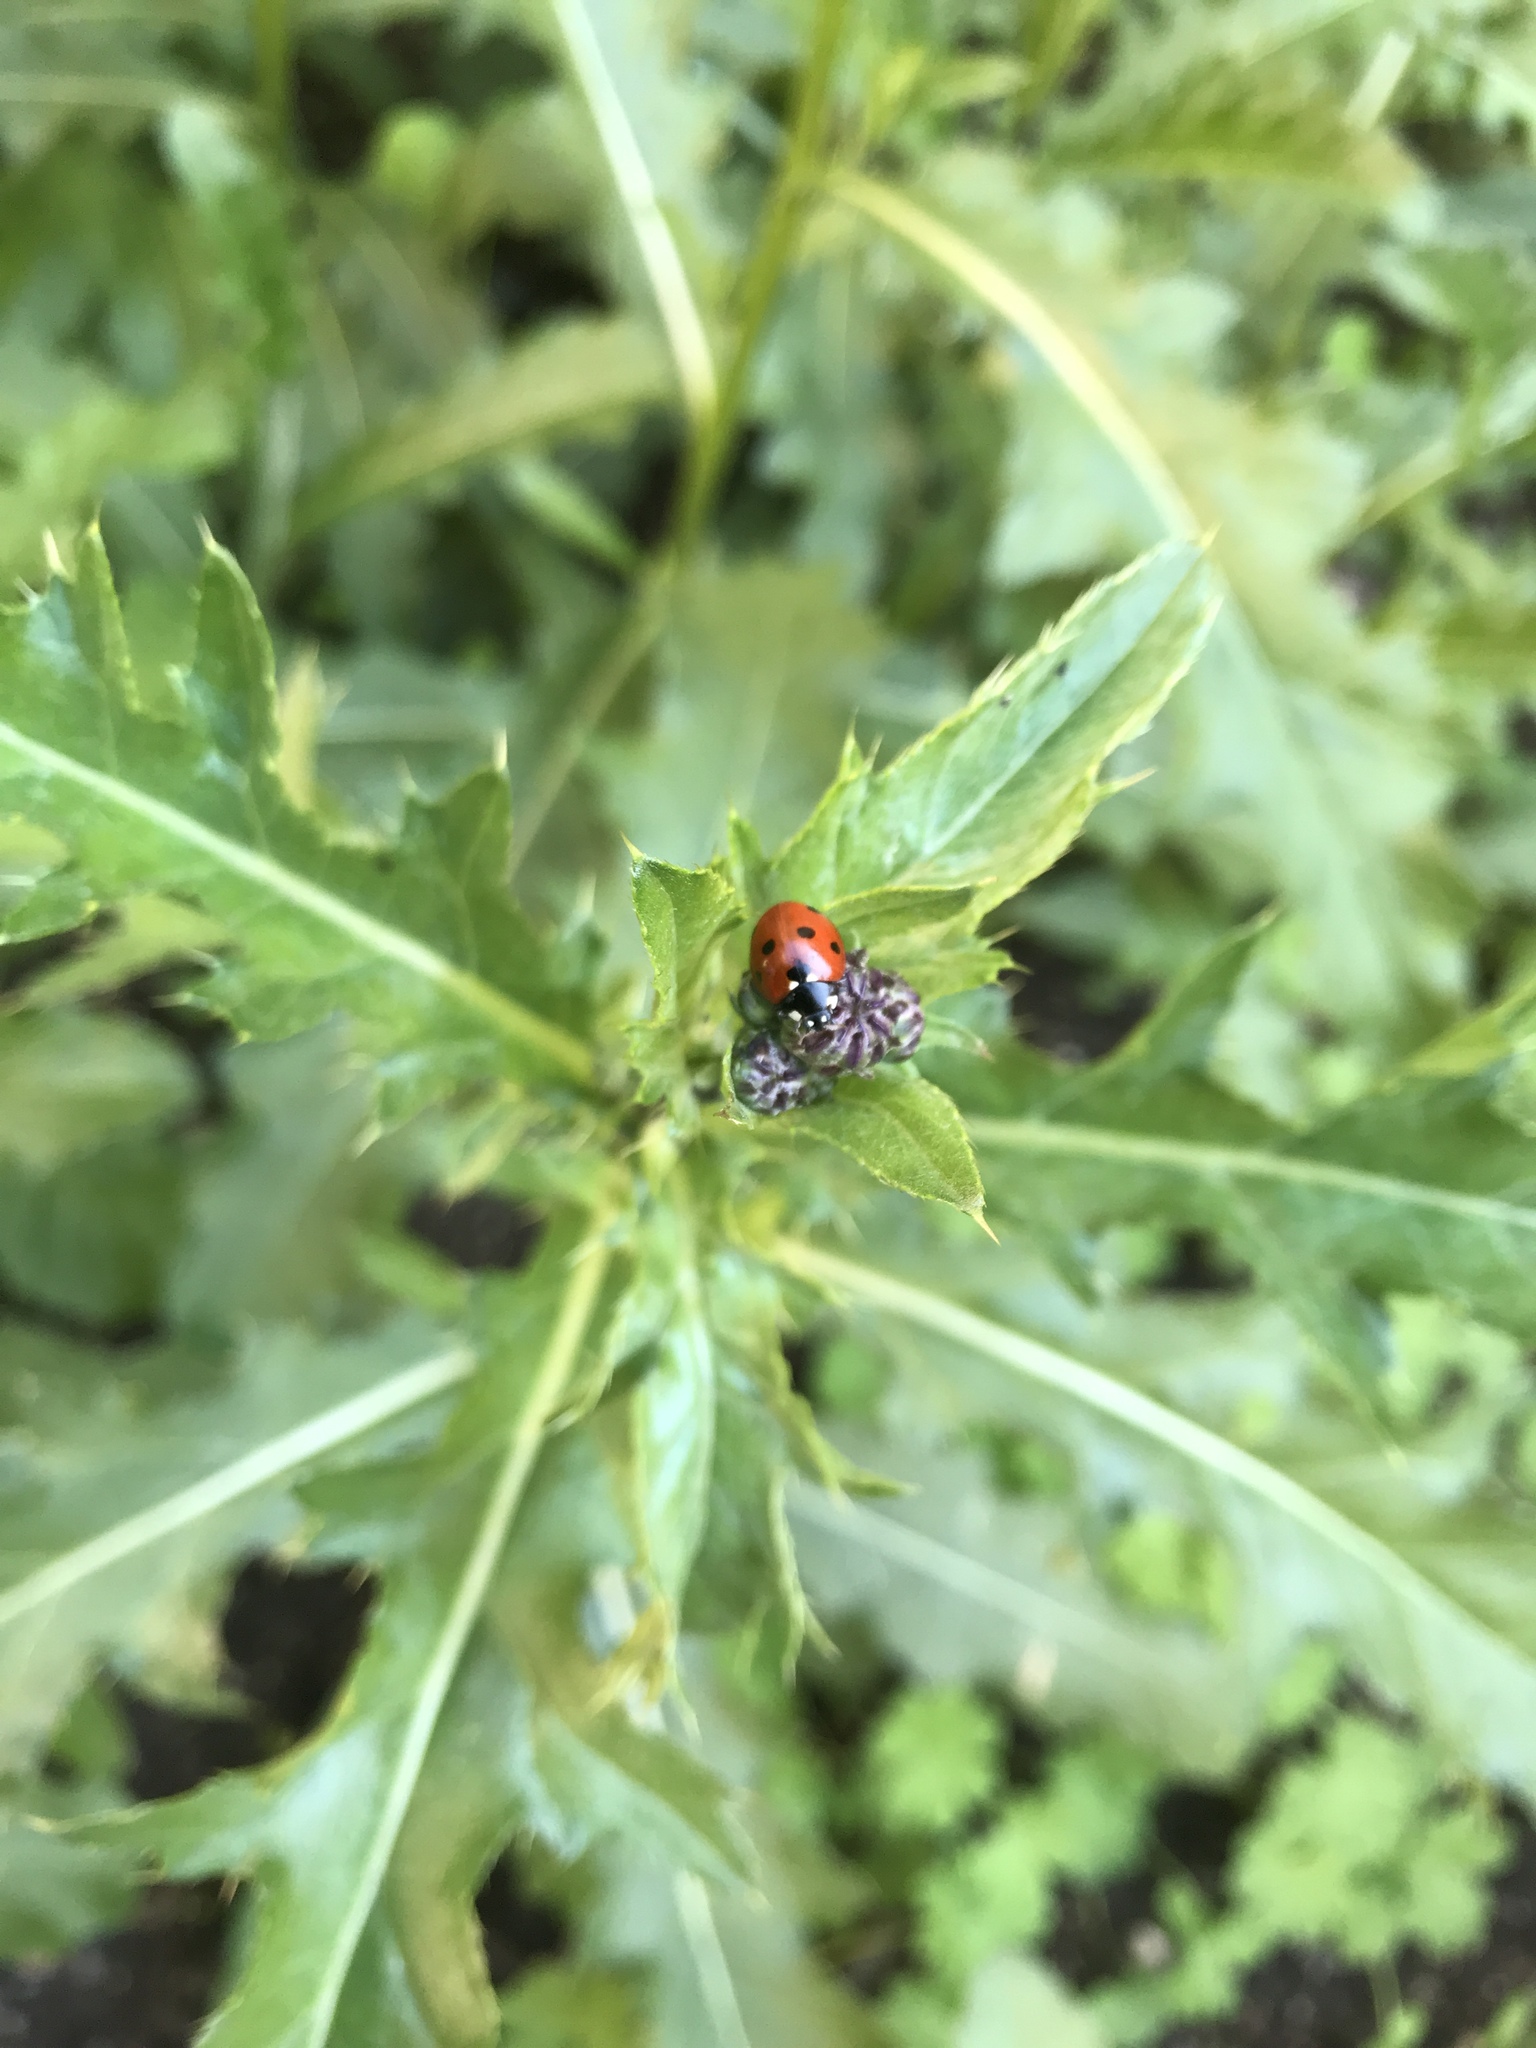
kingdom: Animalia
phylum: Arthropoda
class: Insecta
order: Coleoptera
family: Coccinellidae
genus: Coccinella
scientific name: Coccinella septempunctata
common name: Sevenspotted lady beetle
